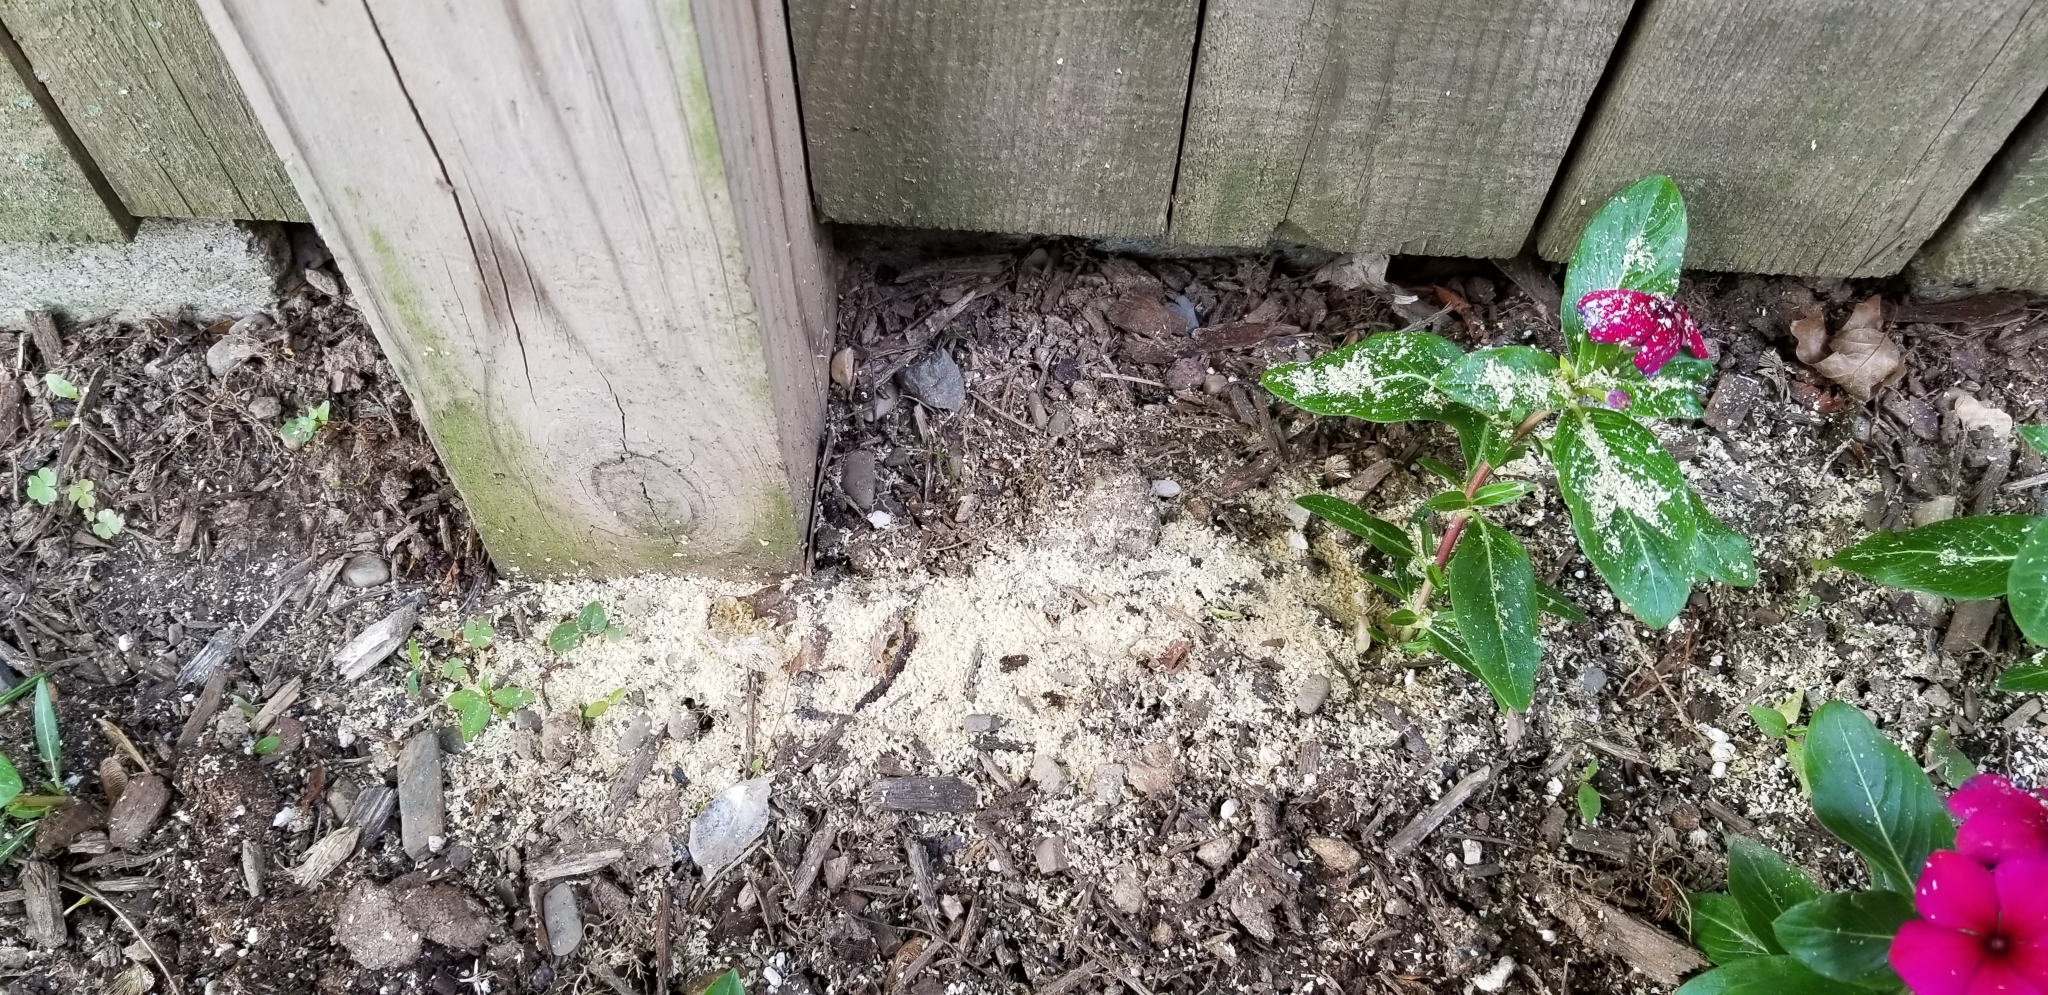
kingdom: Animalia
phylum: Arthropoda
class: Insecta
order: Hymenoptera
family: Apidae
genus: Xylocopa
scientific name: Xylocopa virginica
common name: Carpenter bee
